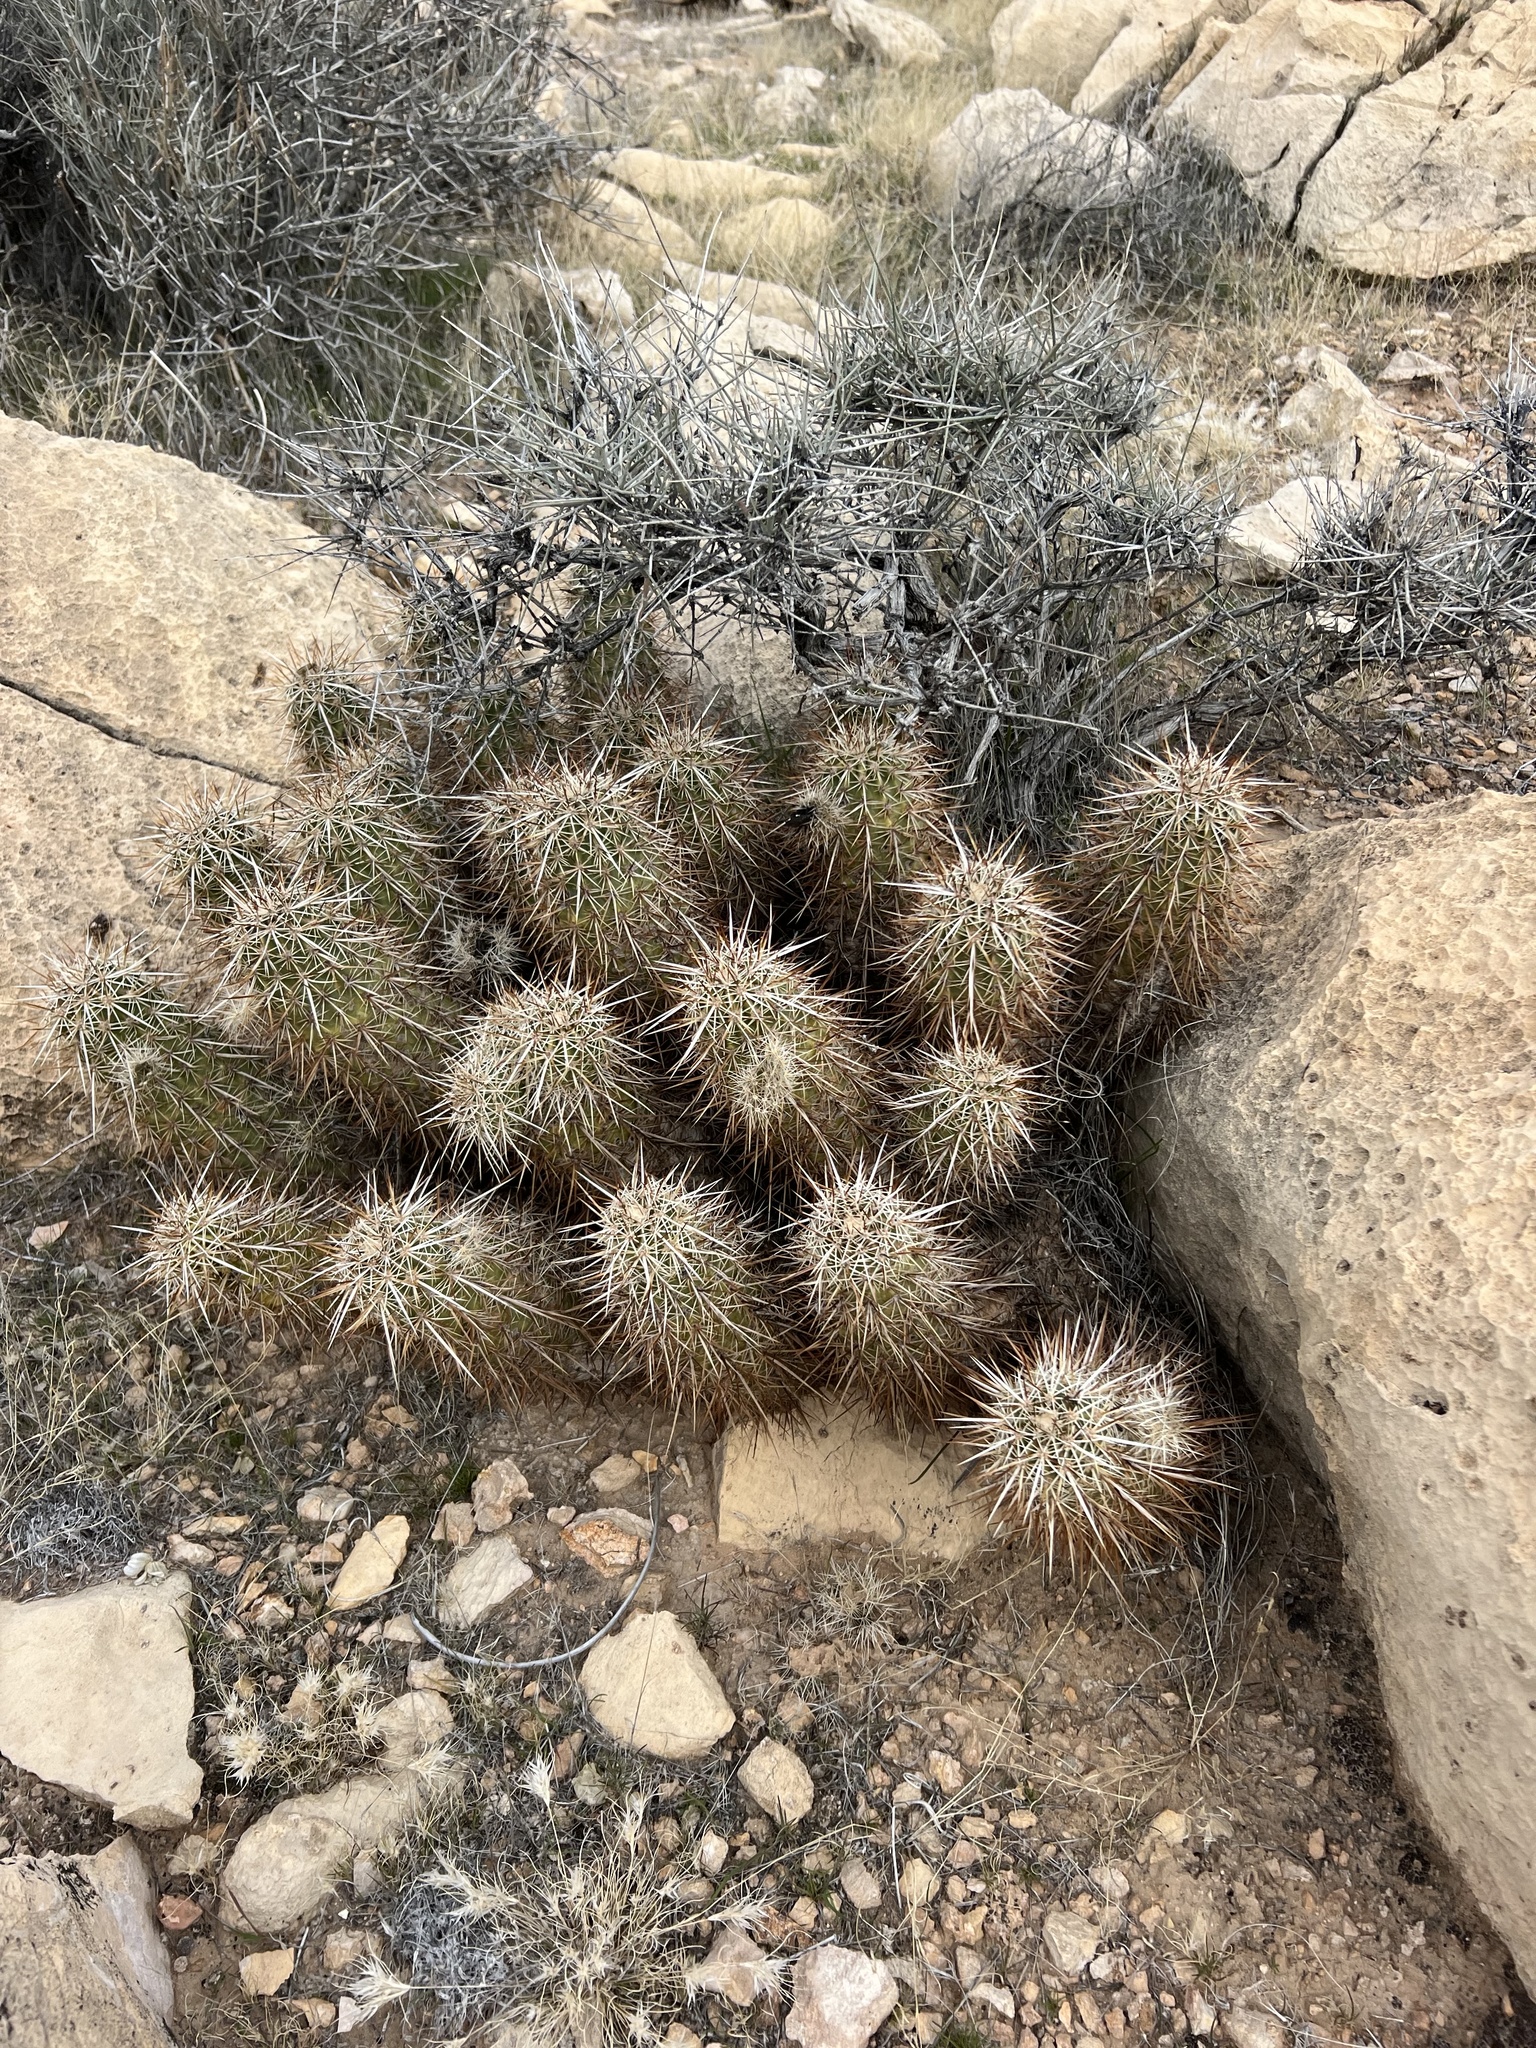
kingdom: Plantae
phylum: Tracheophyta
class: Magnoliopsida
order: Caryophyllales
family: Cactaceae
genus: Echinocereus
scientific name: Echinocereus engelmannii
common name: Engelmann's hedgehog cactus
